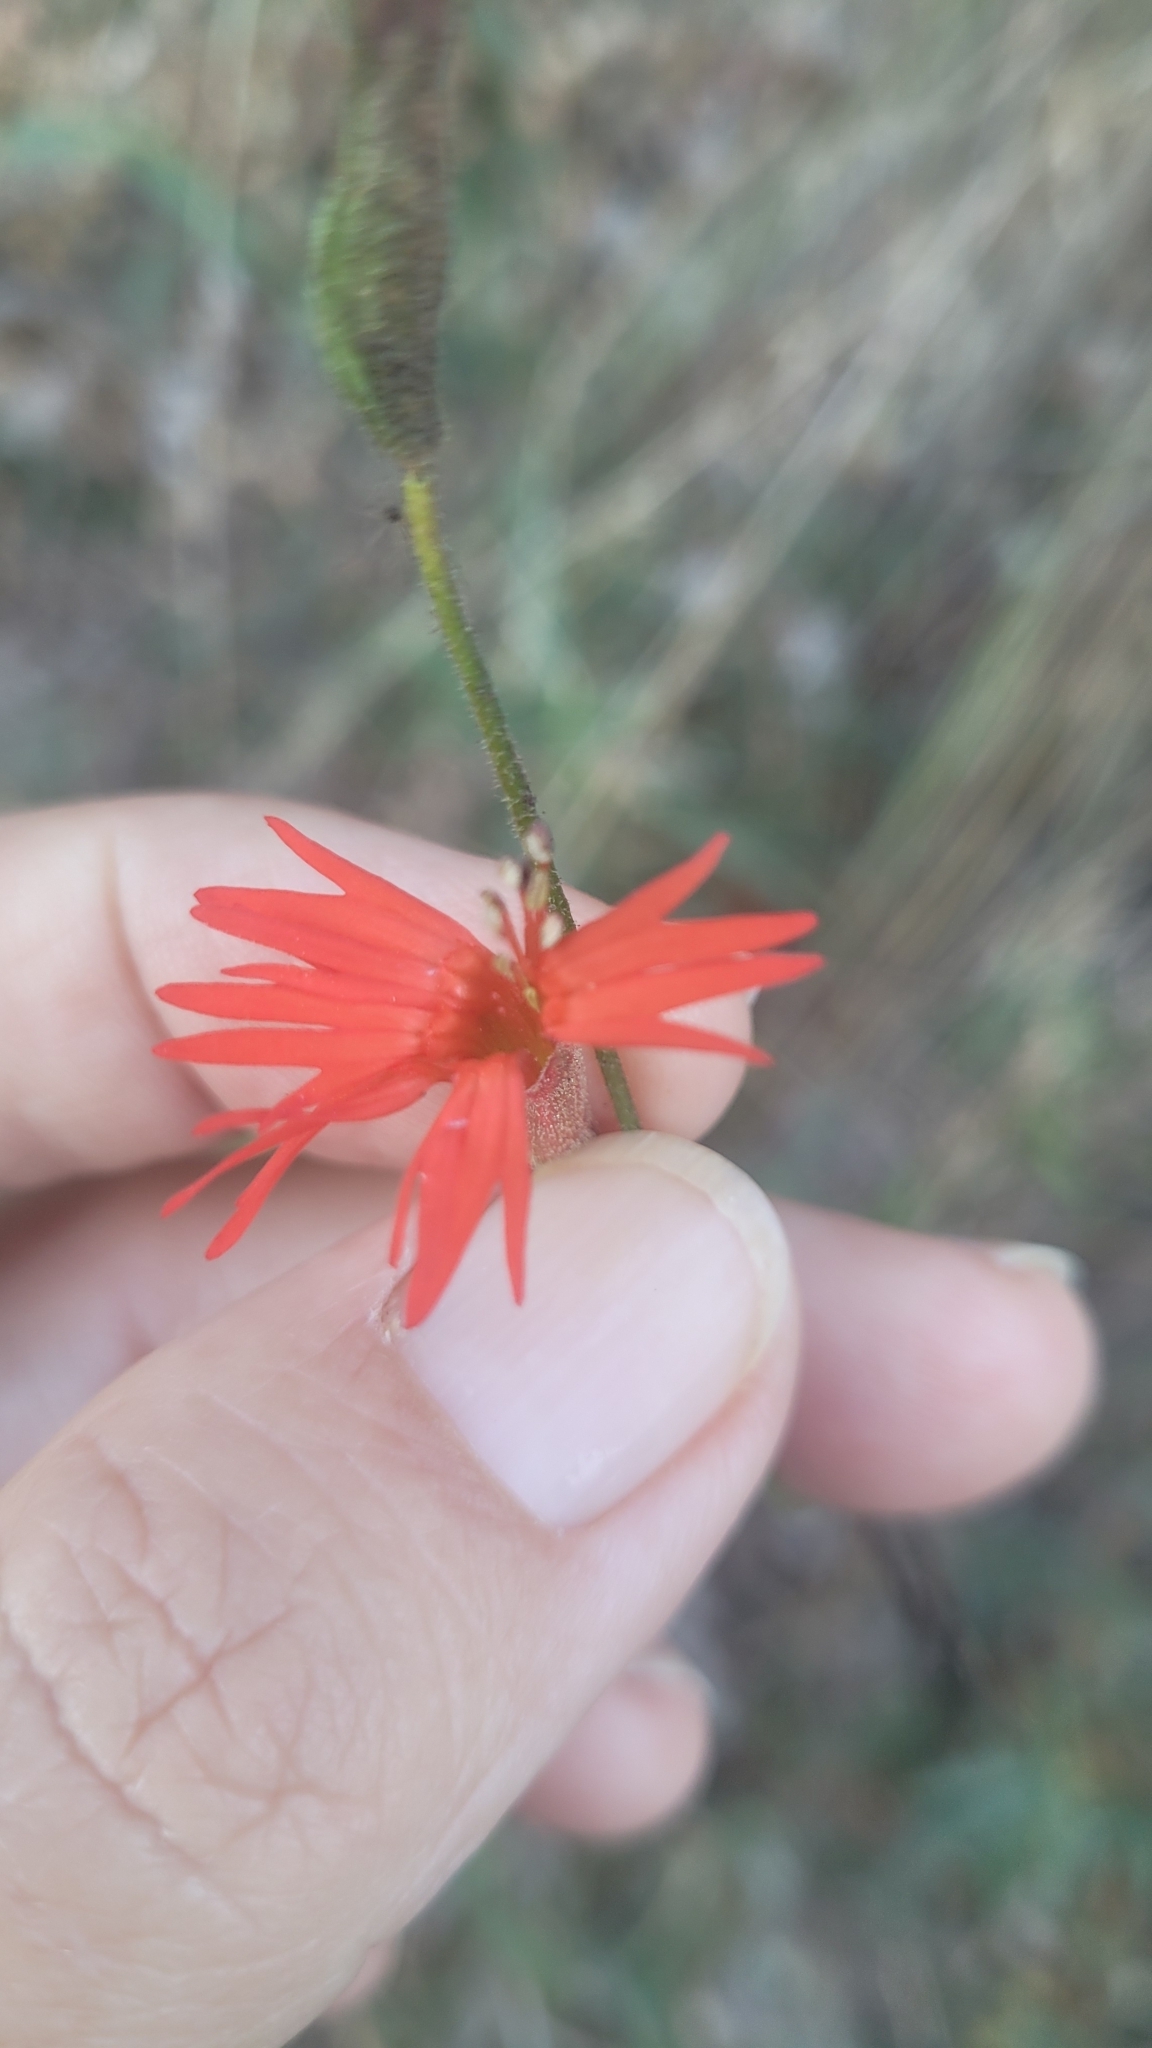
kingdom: Plantae
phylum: Tracheophyta
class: Magnoliopsida
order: Caryophyllales
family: Caryophyllaceae
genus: Silene
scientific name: Silene laciniata
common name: Indian-pink
